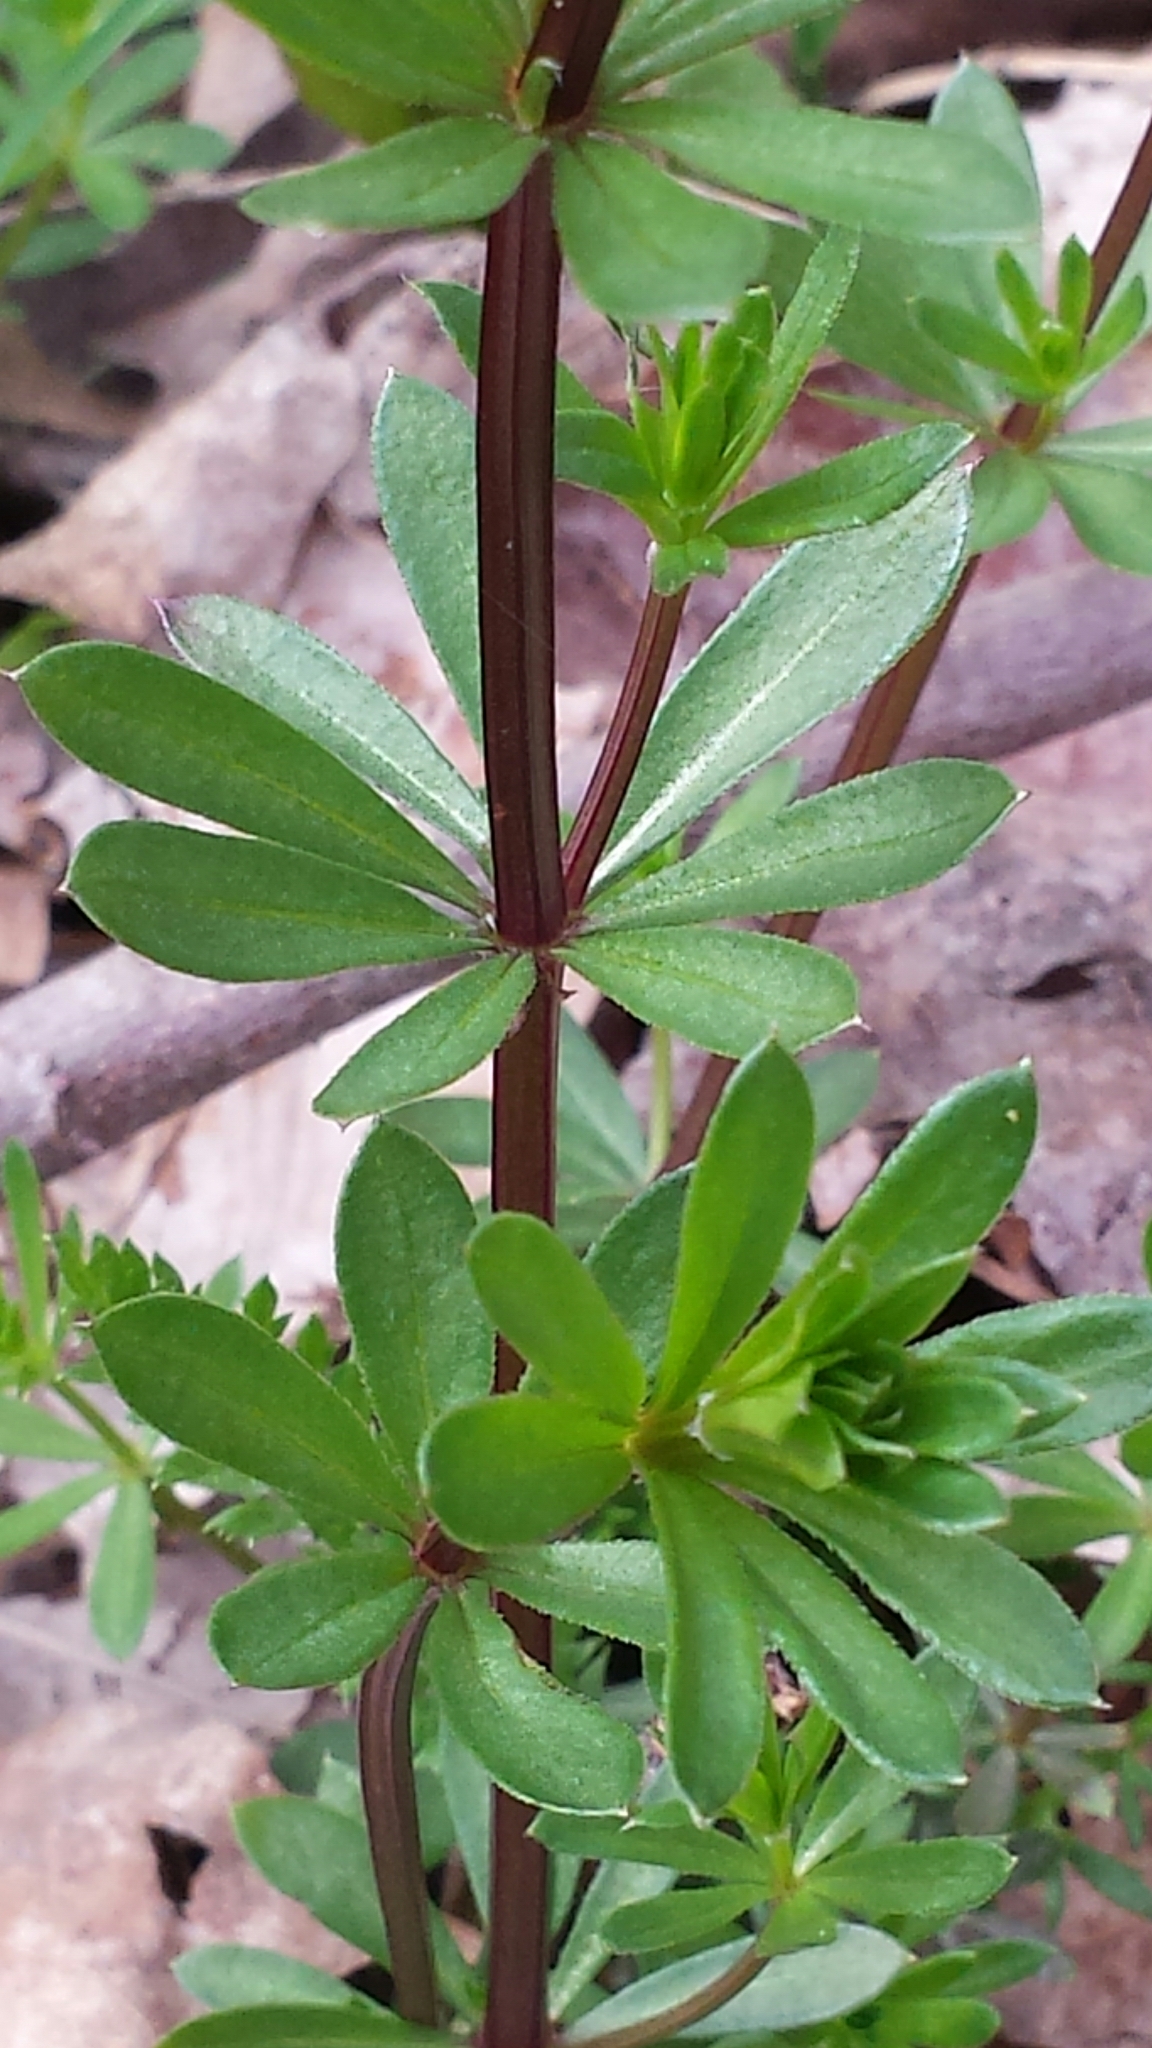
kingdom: Plantae
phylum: Tracheophyta
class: Magnoliopsida
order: Gentianales
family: Rubiaceae
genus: Galium
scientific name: Galium mollugo
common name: Hedge bedstraw
